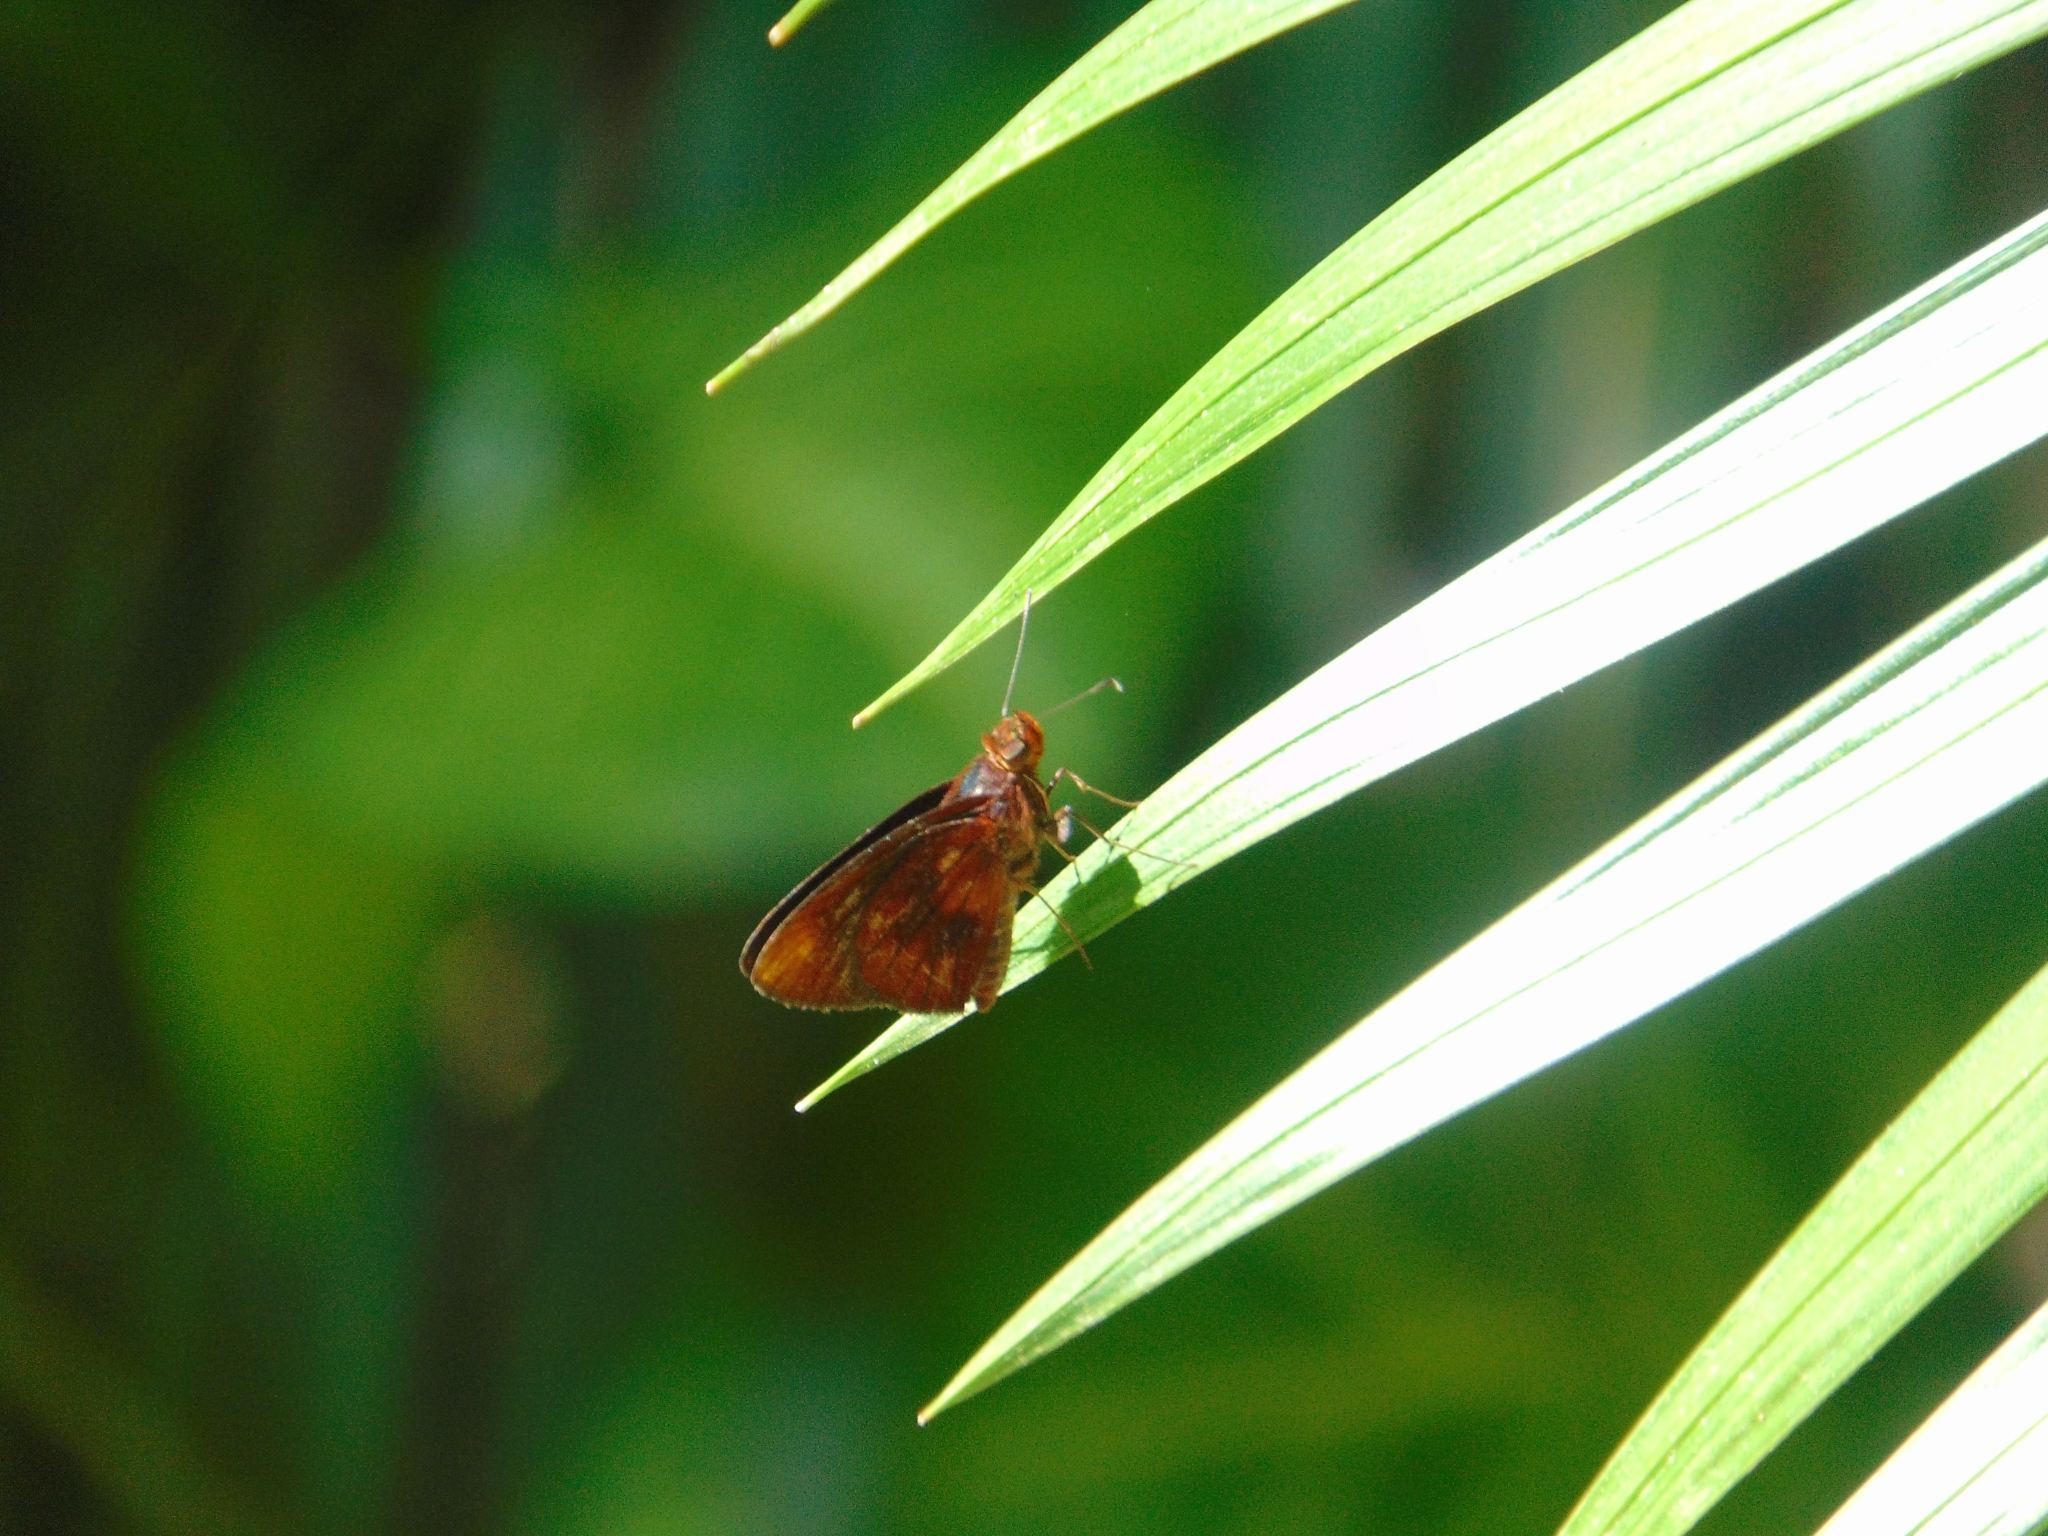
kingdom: Animalia
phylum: Arthropoda
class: Insecta
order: Lepidoptera
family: Hesperiidae
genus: Miltomiges
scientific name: Miltomiges cinnamomea
